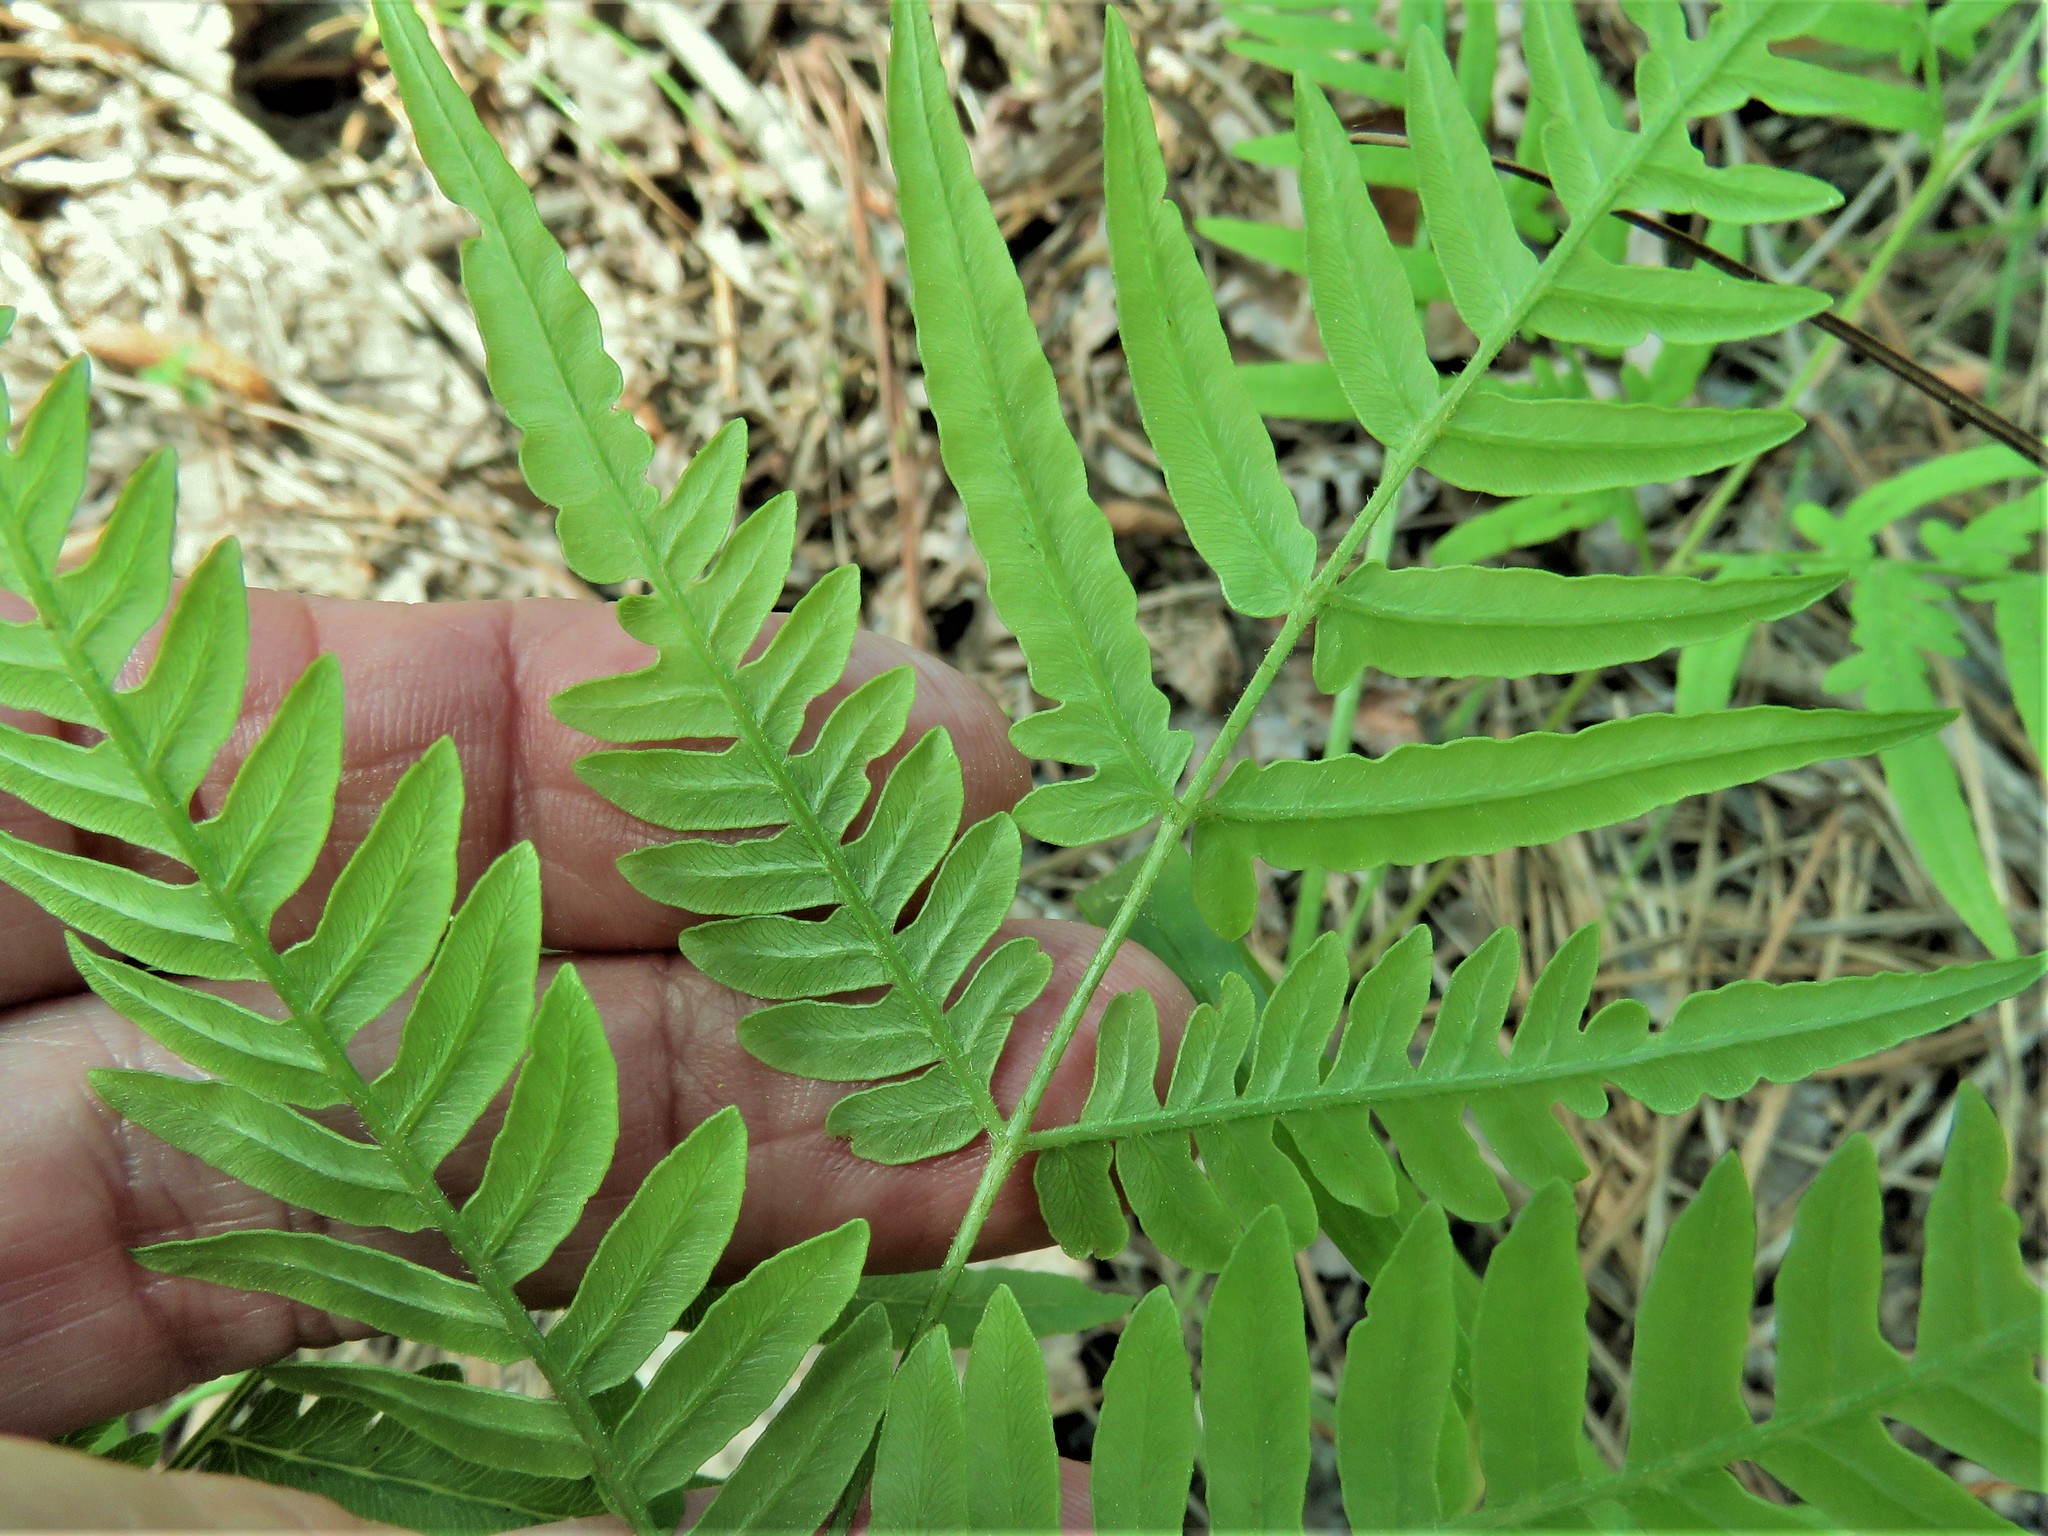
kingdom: Plantae
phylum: Tracheophyta
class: Polypodiopsida
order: Polypodiales
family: Dennstaedtiaceae
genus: Pteridium
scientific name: Pteridium aquilinum
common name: Bracken
